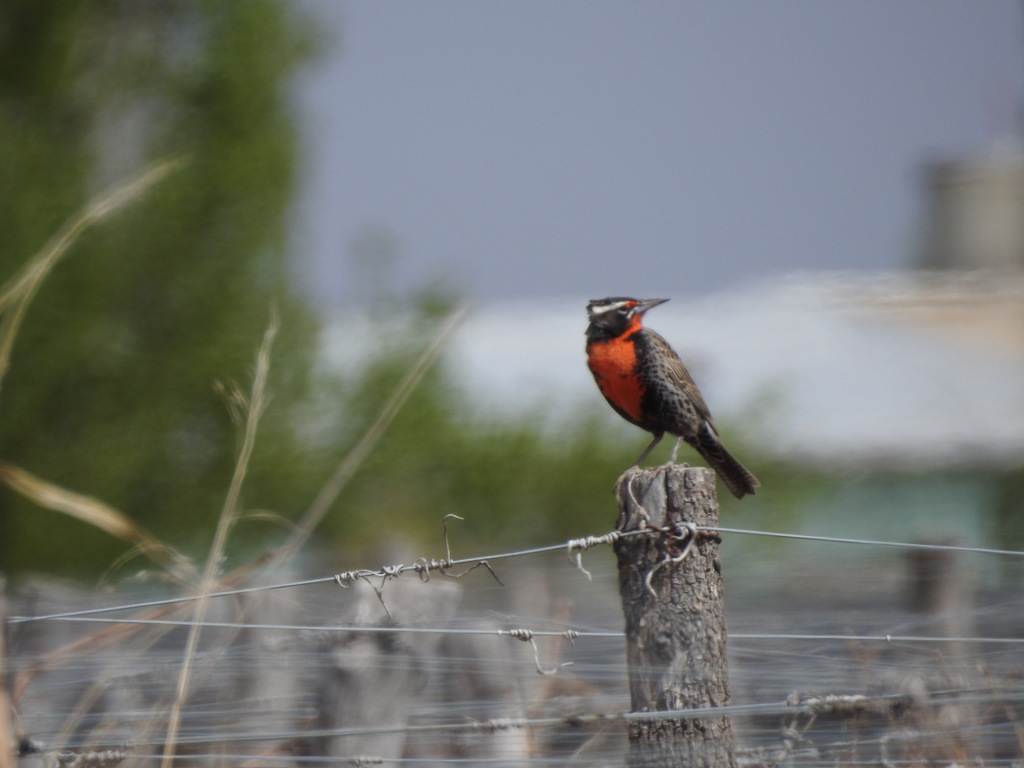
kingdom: Animalia
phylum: Chordata
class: Aves
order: Passeriformes
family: Icteridae
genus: Sturnella
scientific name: Sturnella loyca
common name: Long-tailed meadowlark
